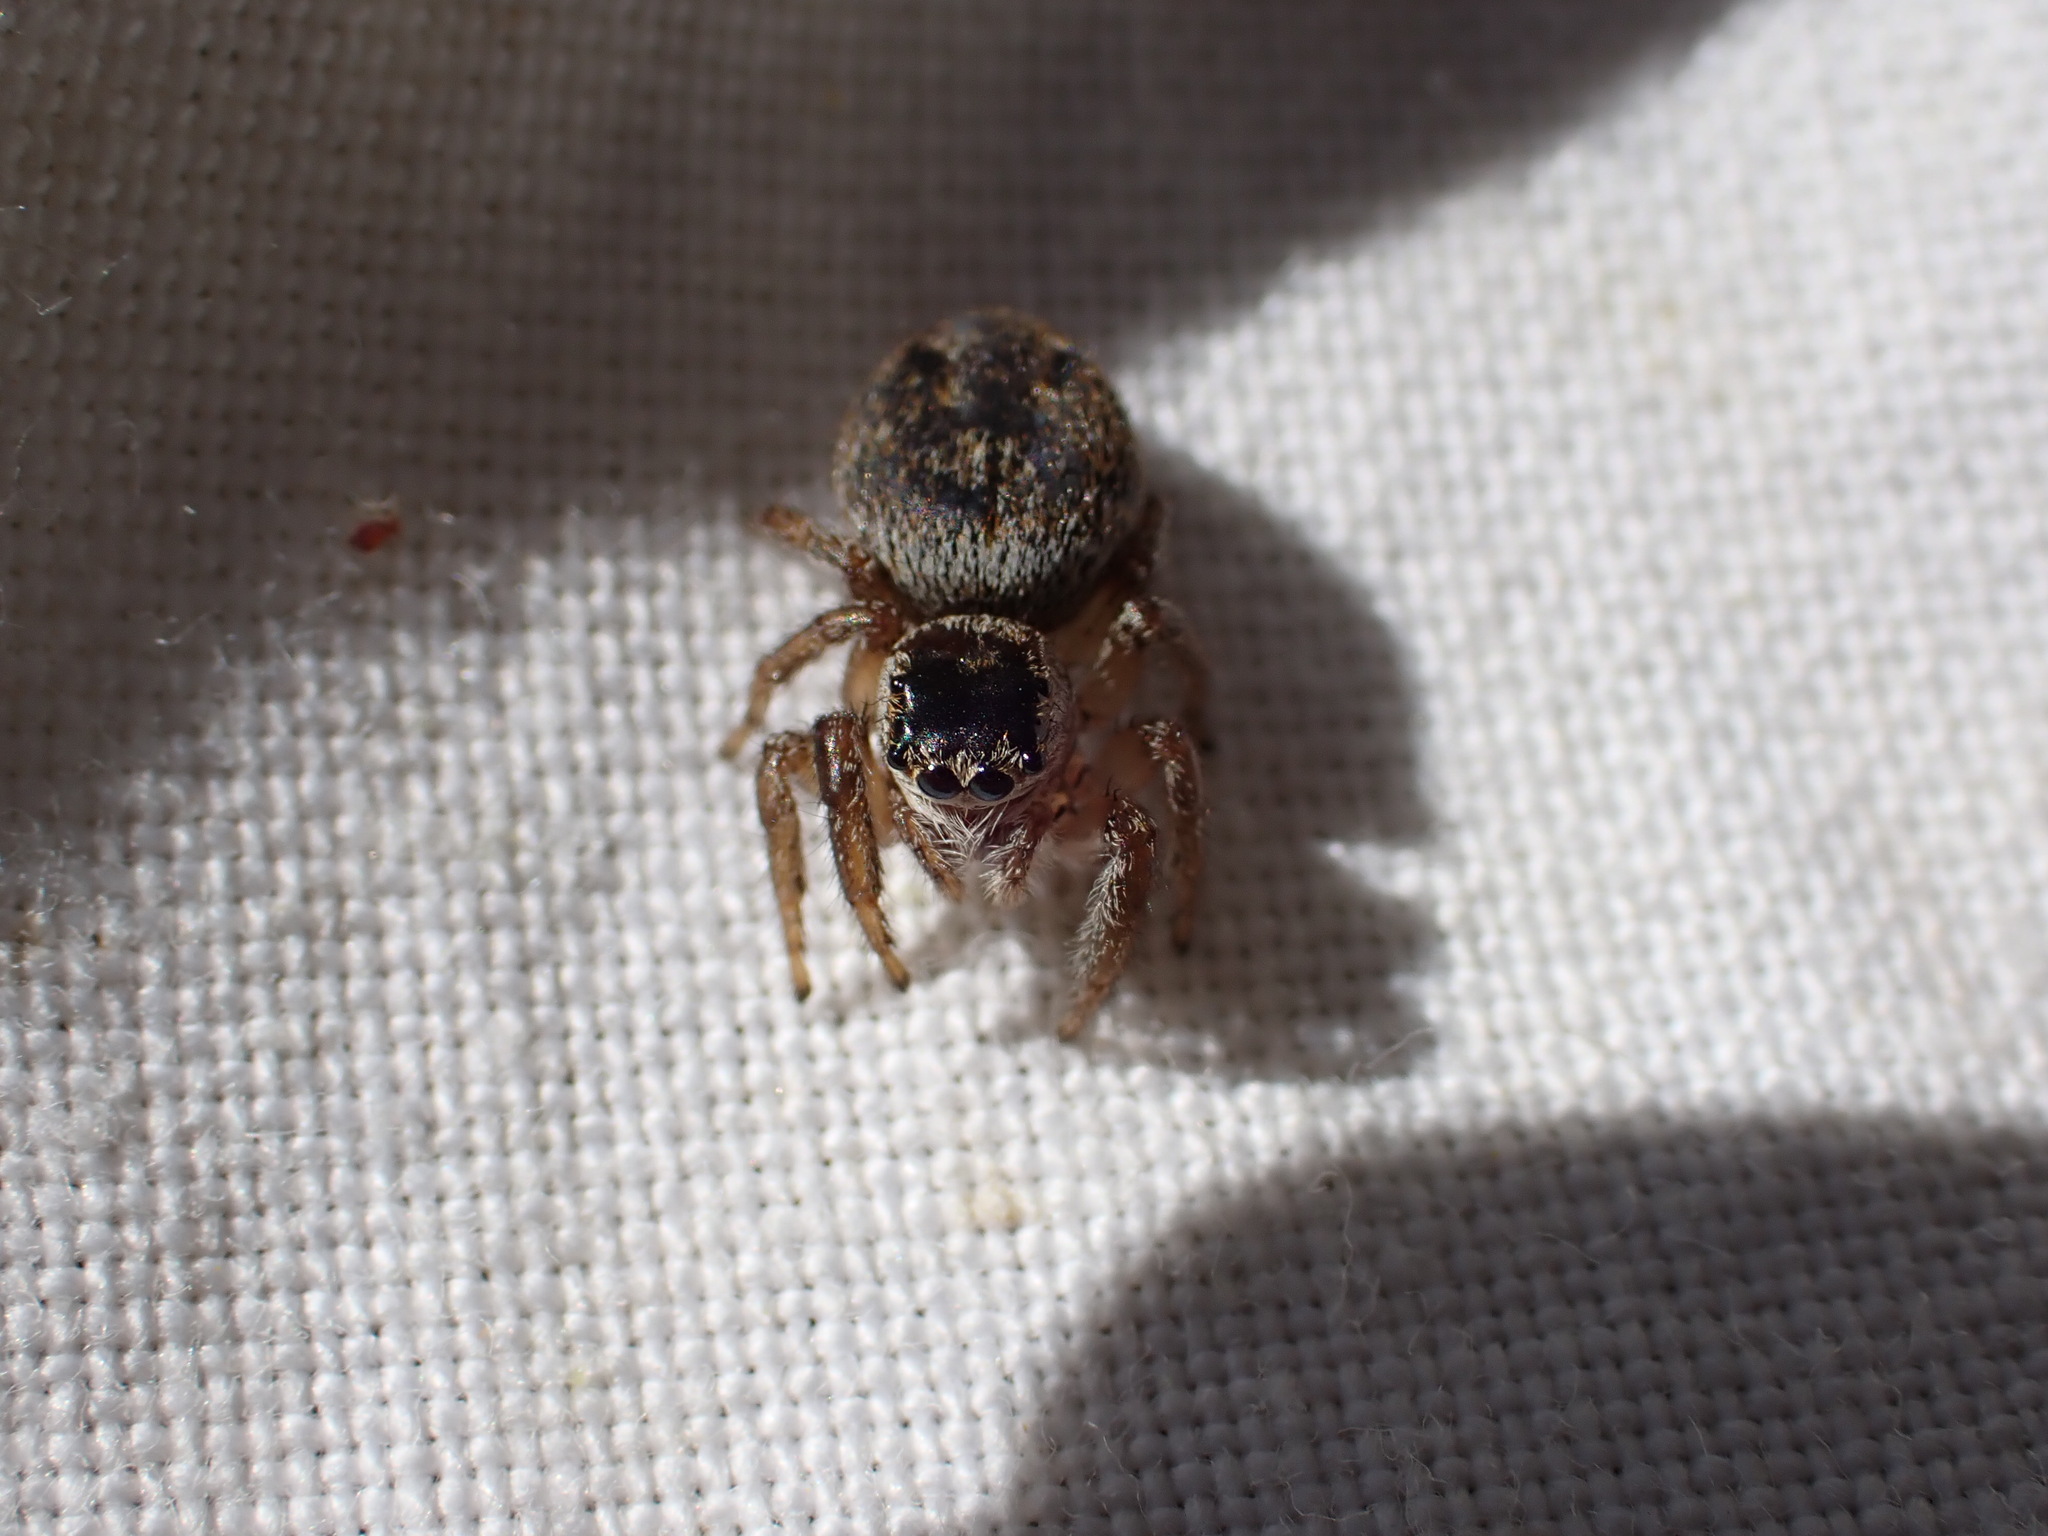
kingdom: Animalia
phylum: Arthropoda
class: Arachnida
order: Araneae
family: Salticidae
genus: Evarcha
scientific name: Evarcha arcuata
